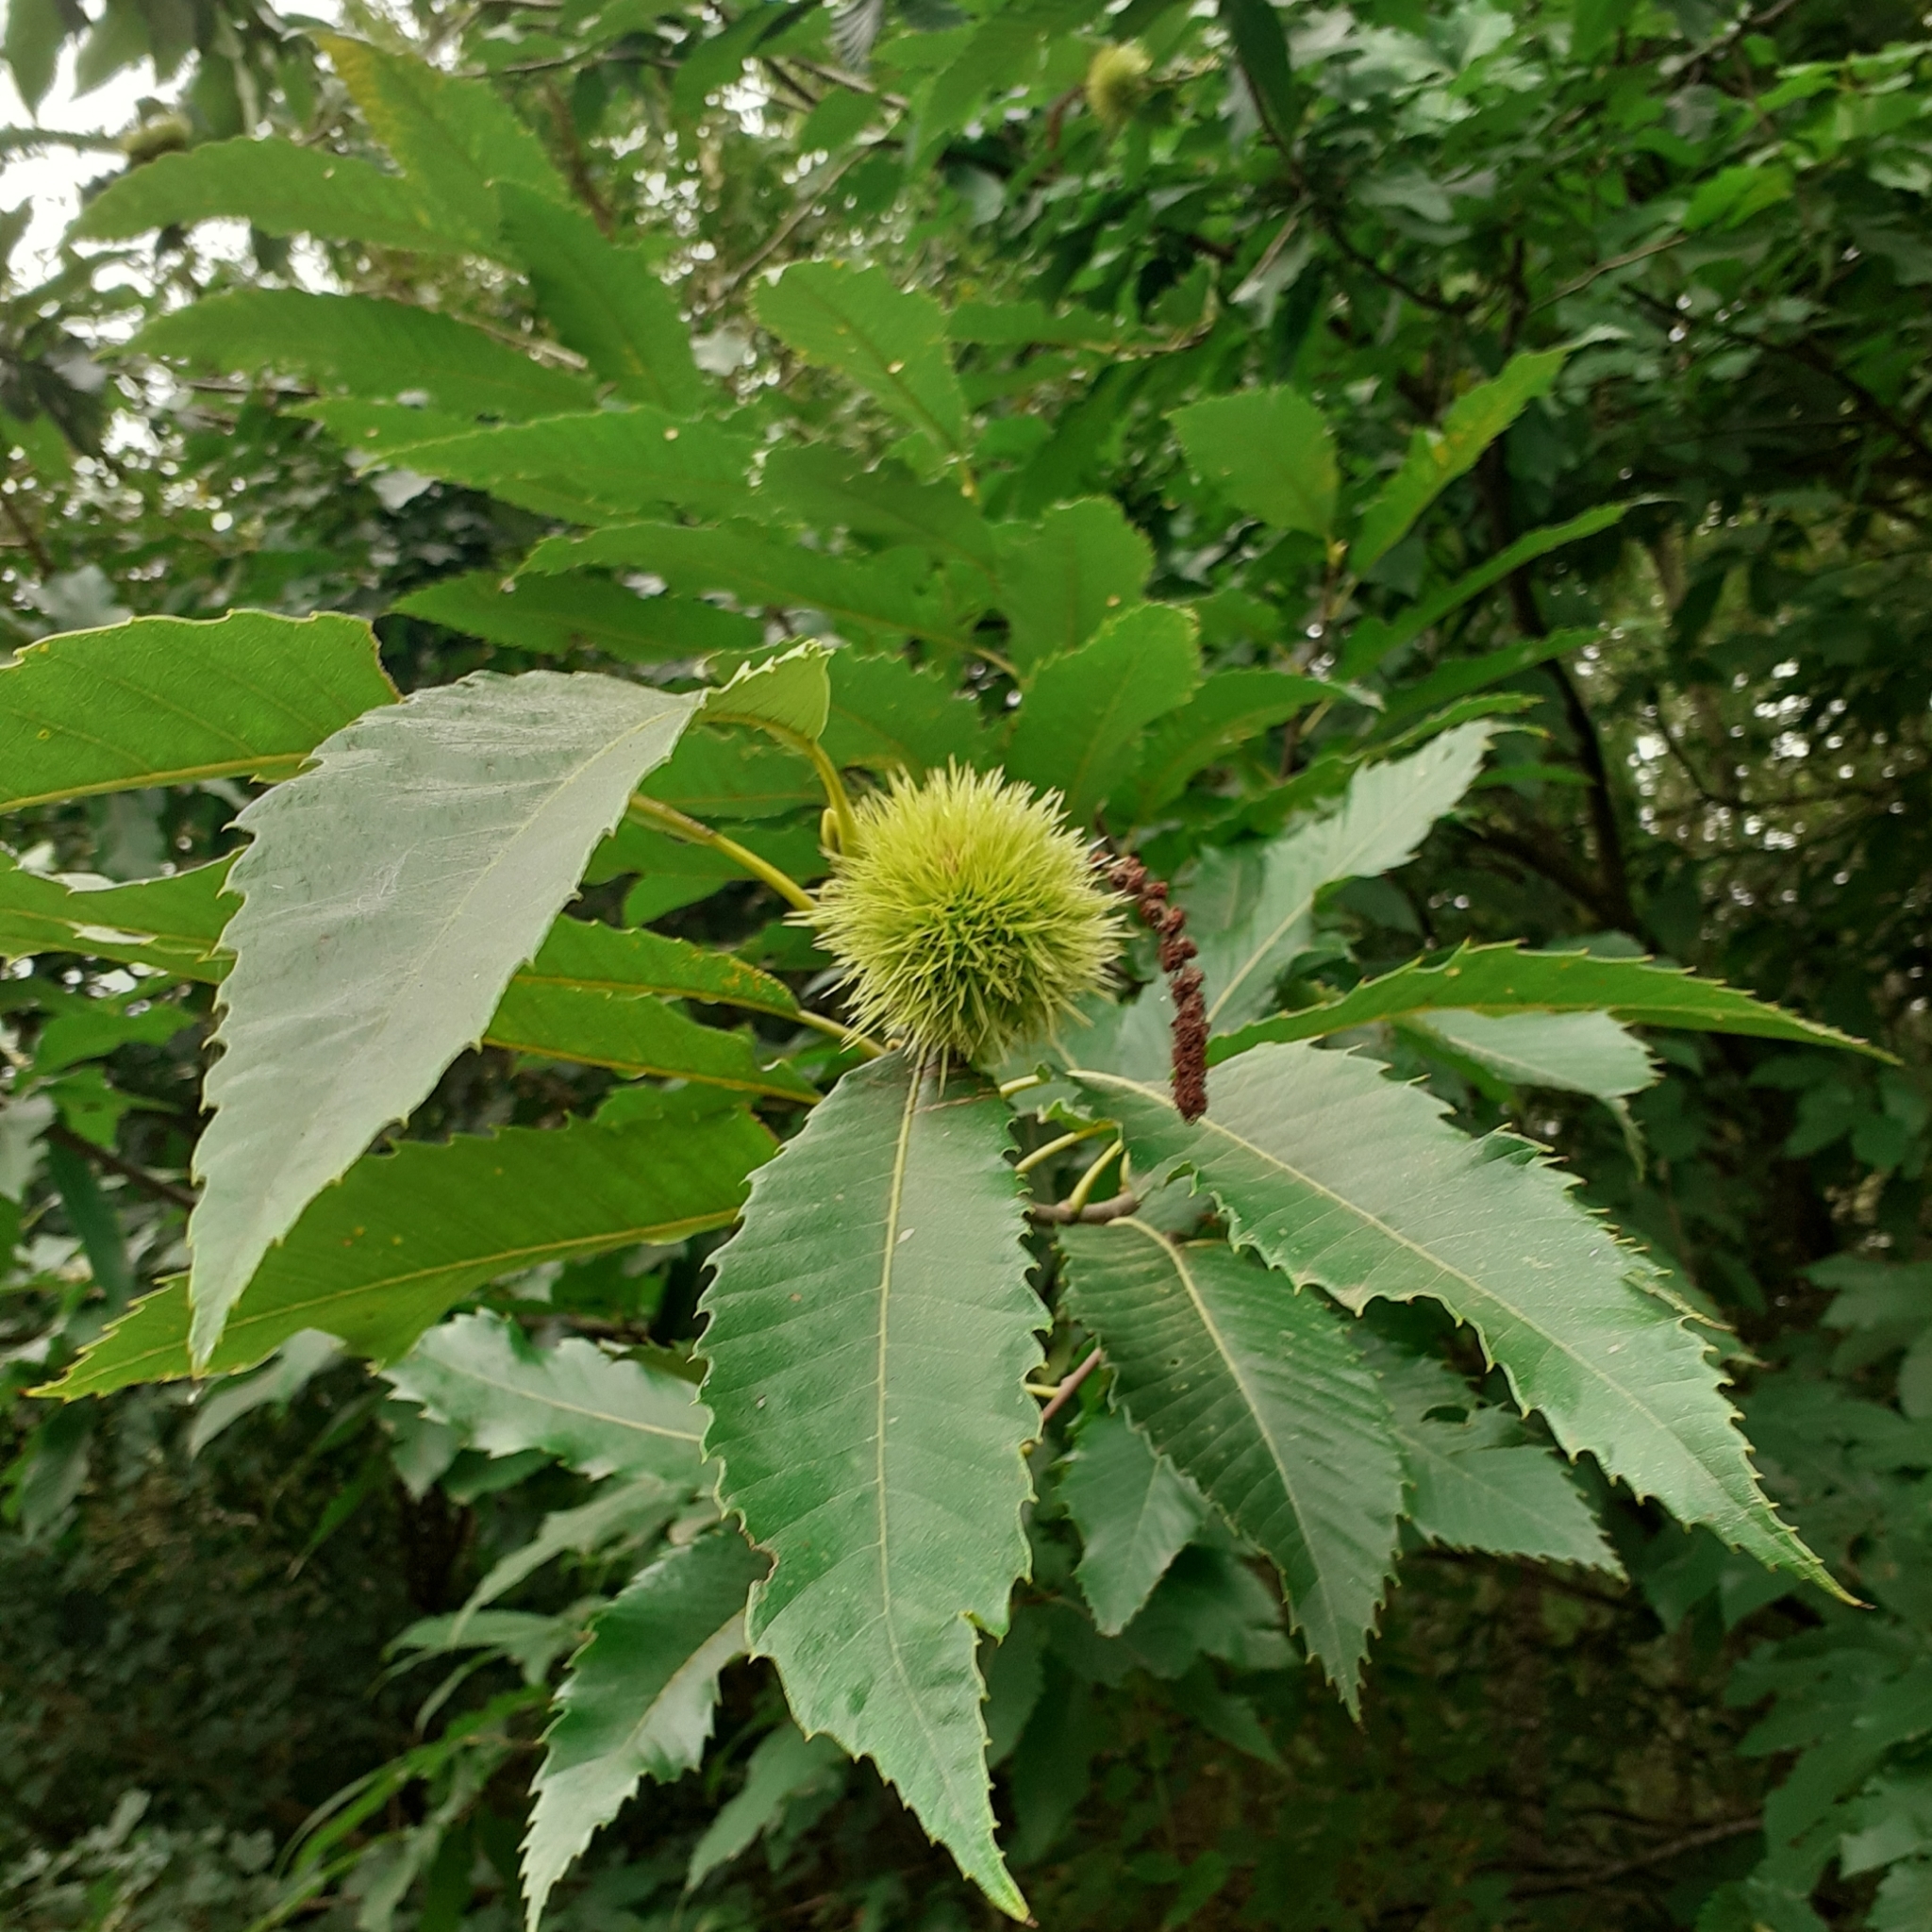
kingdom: Plantae
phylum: Tracheophyta
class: Magnoliopsida
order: Fagales
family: Fagaceae
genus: Castanea
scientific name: Castanea sativa
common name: Sweet chestnut
